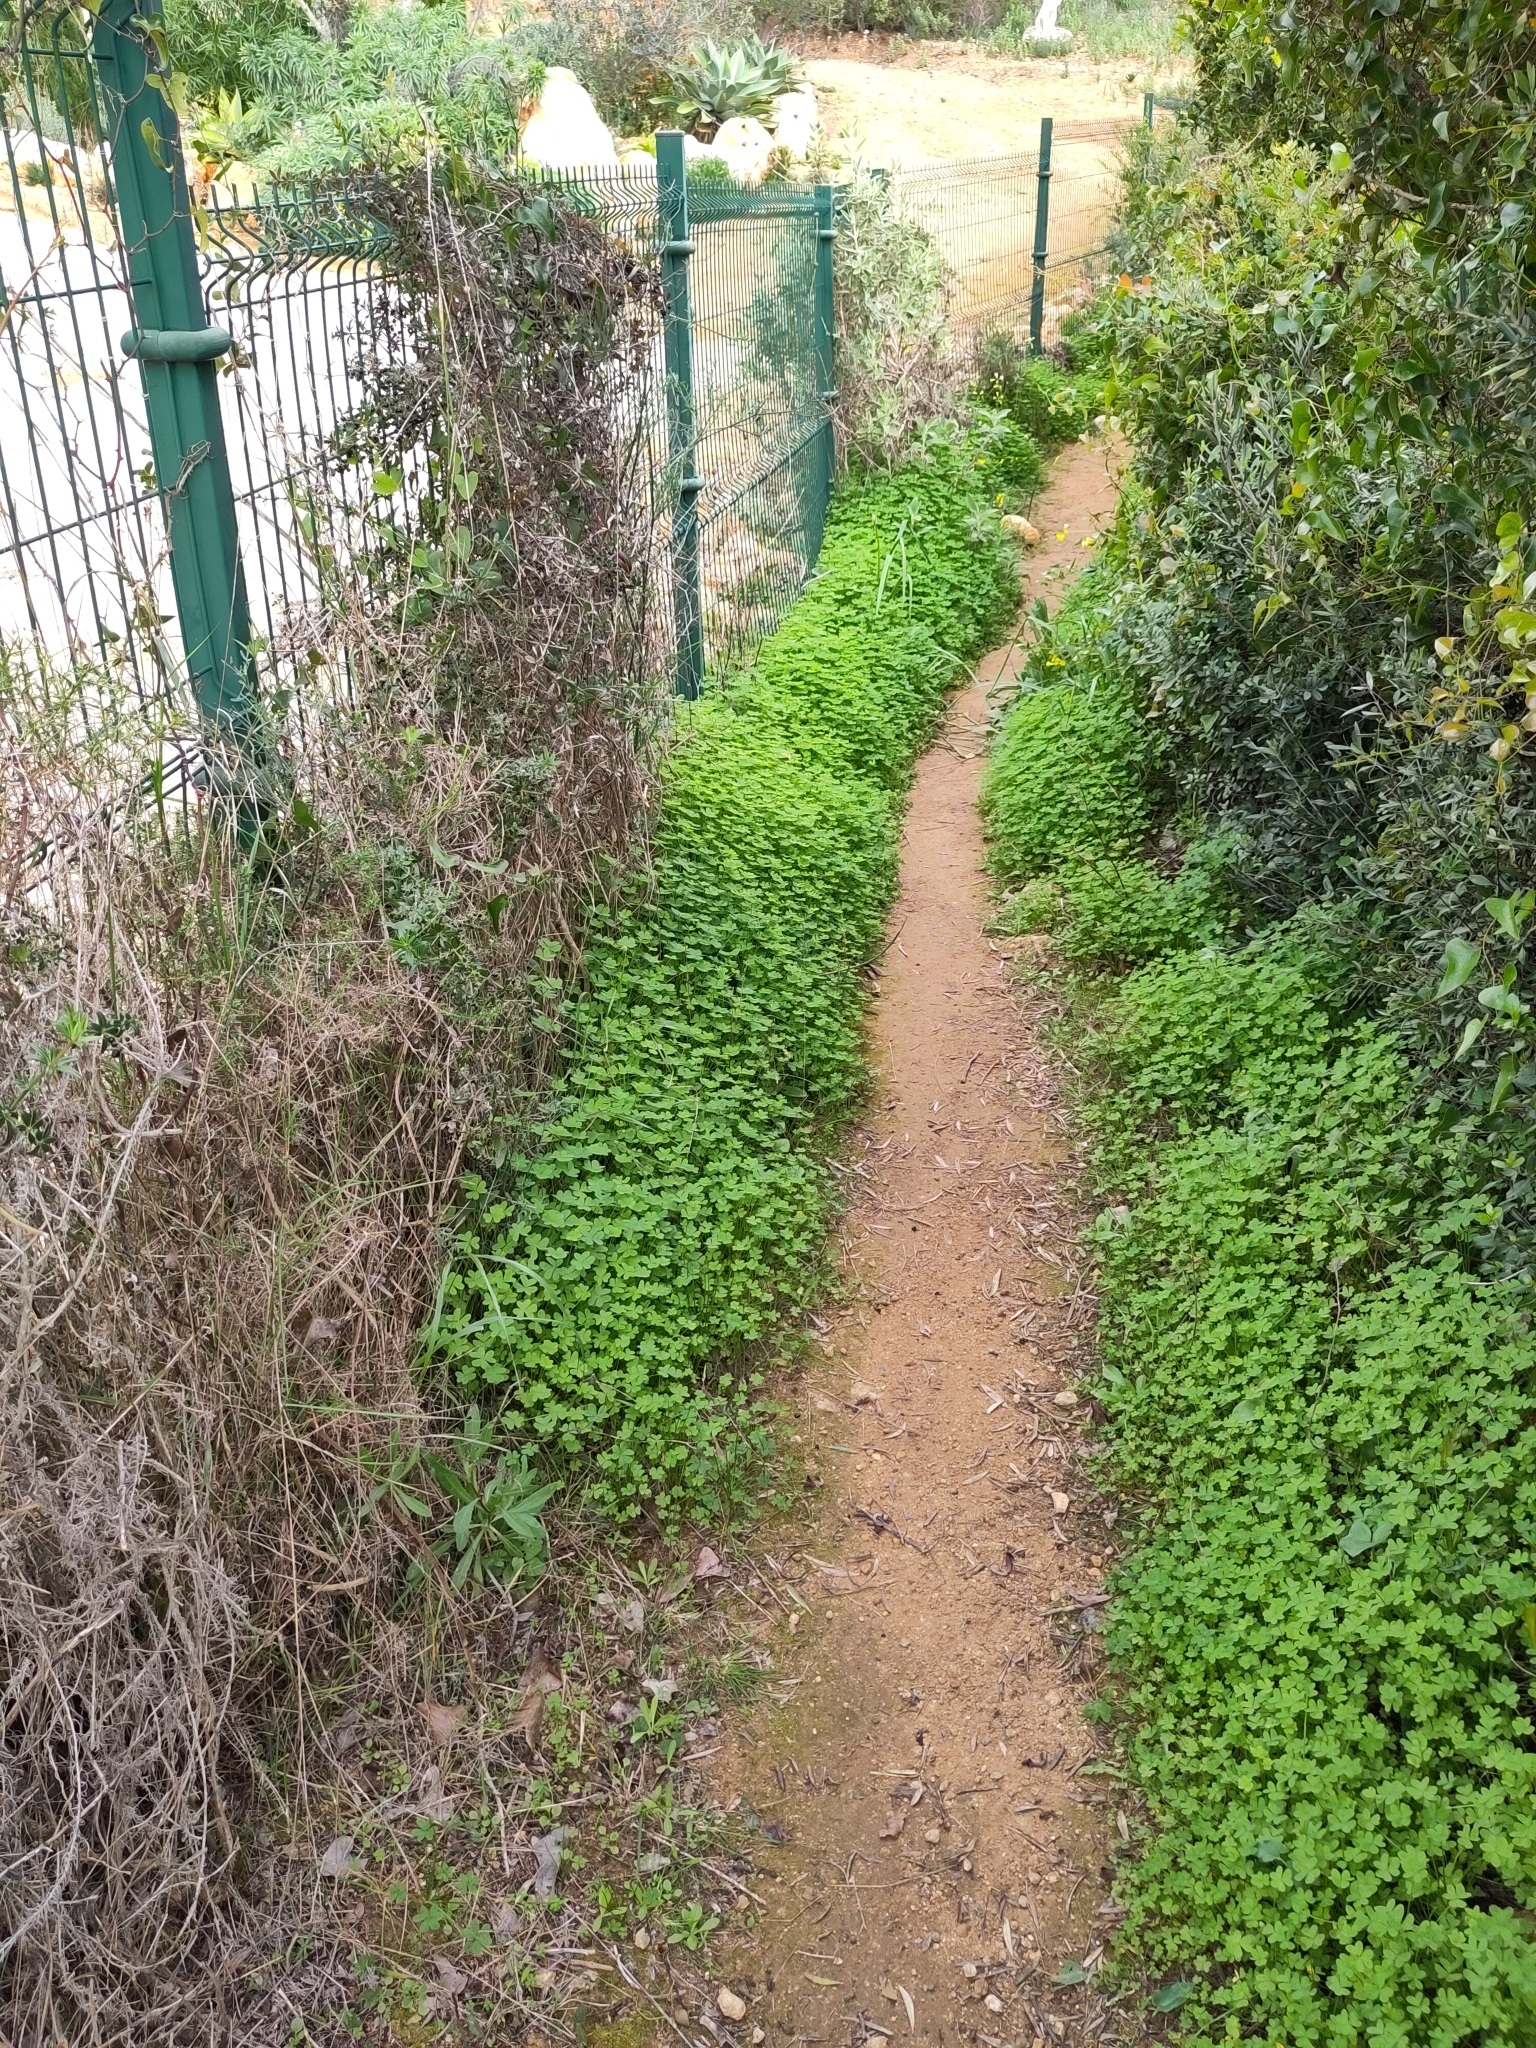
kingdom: Plantae
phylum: Tracheophyta
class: Magnoliopsida
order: Oxalidales
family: Oxalidaceae
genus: Oxalis
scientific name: Oxalis pes-caprae
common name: Bermuda-buttercup
